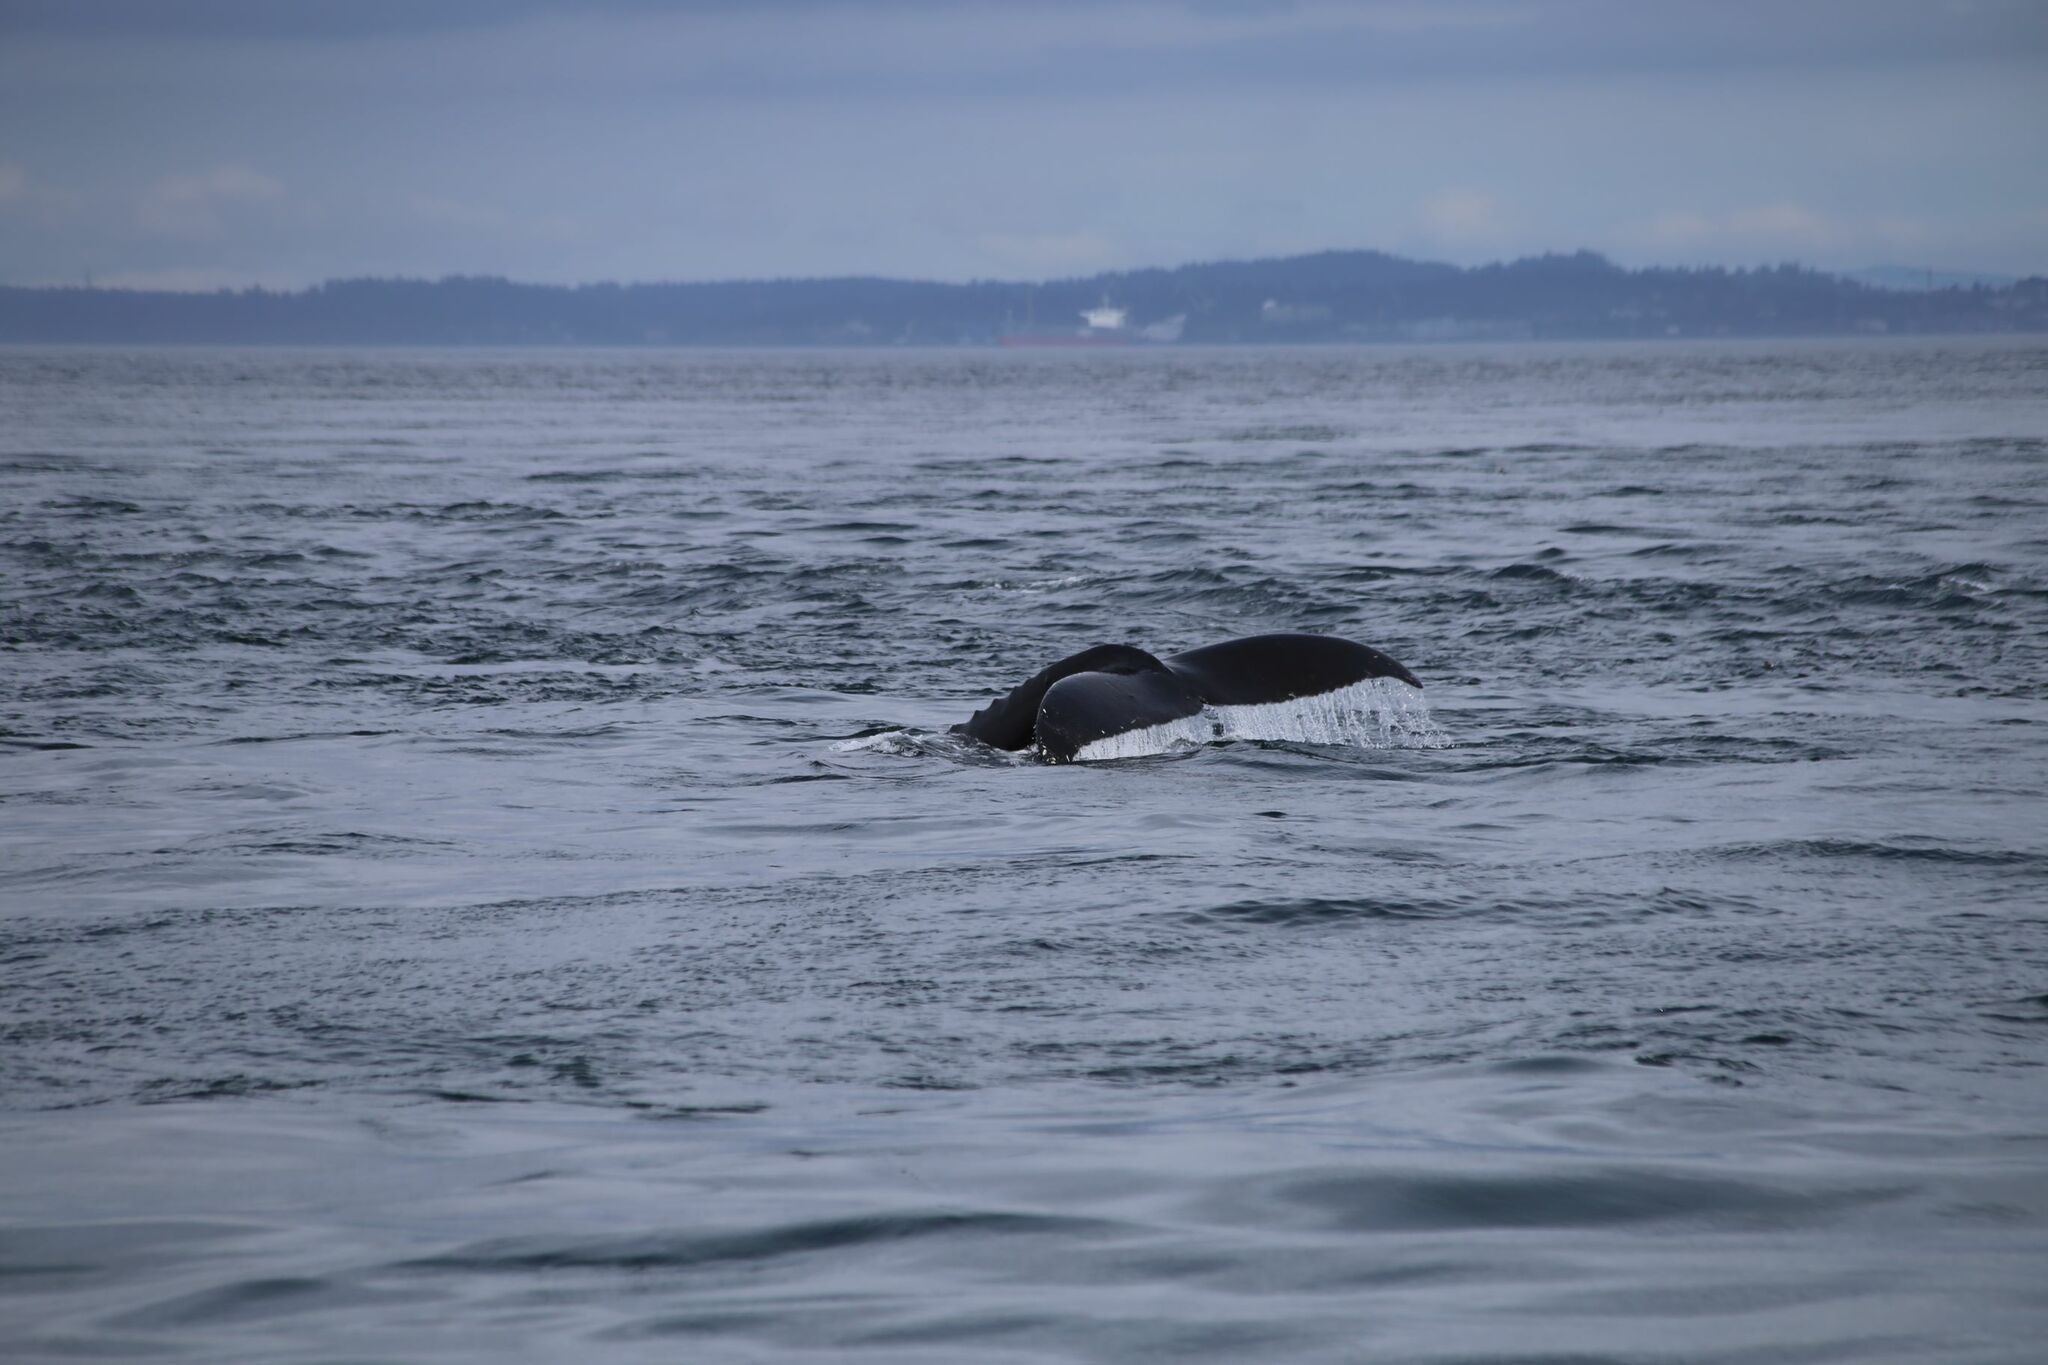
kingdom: Animalia
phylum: Chordata
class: Mammalia
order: Cetacea
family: Balaenopteridae
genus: Megaptera
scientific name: Megaptera novaeangliae
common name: Humpback whale
